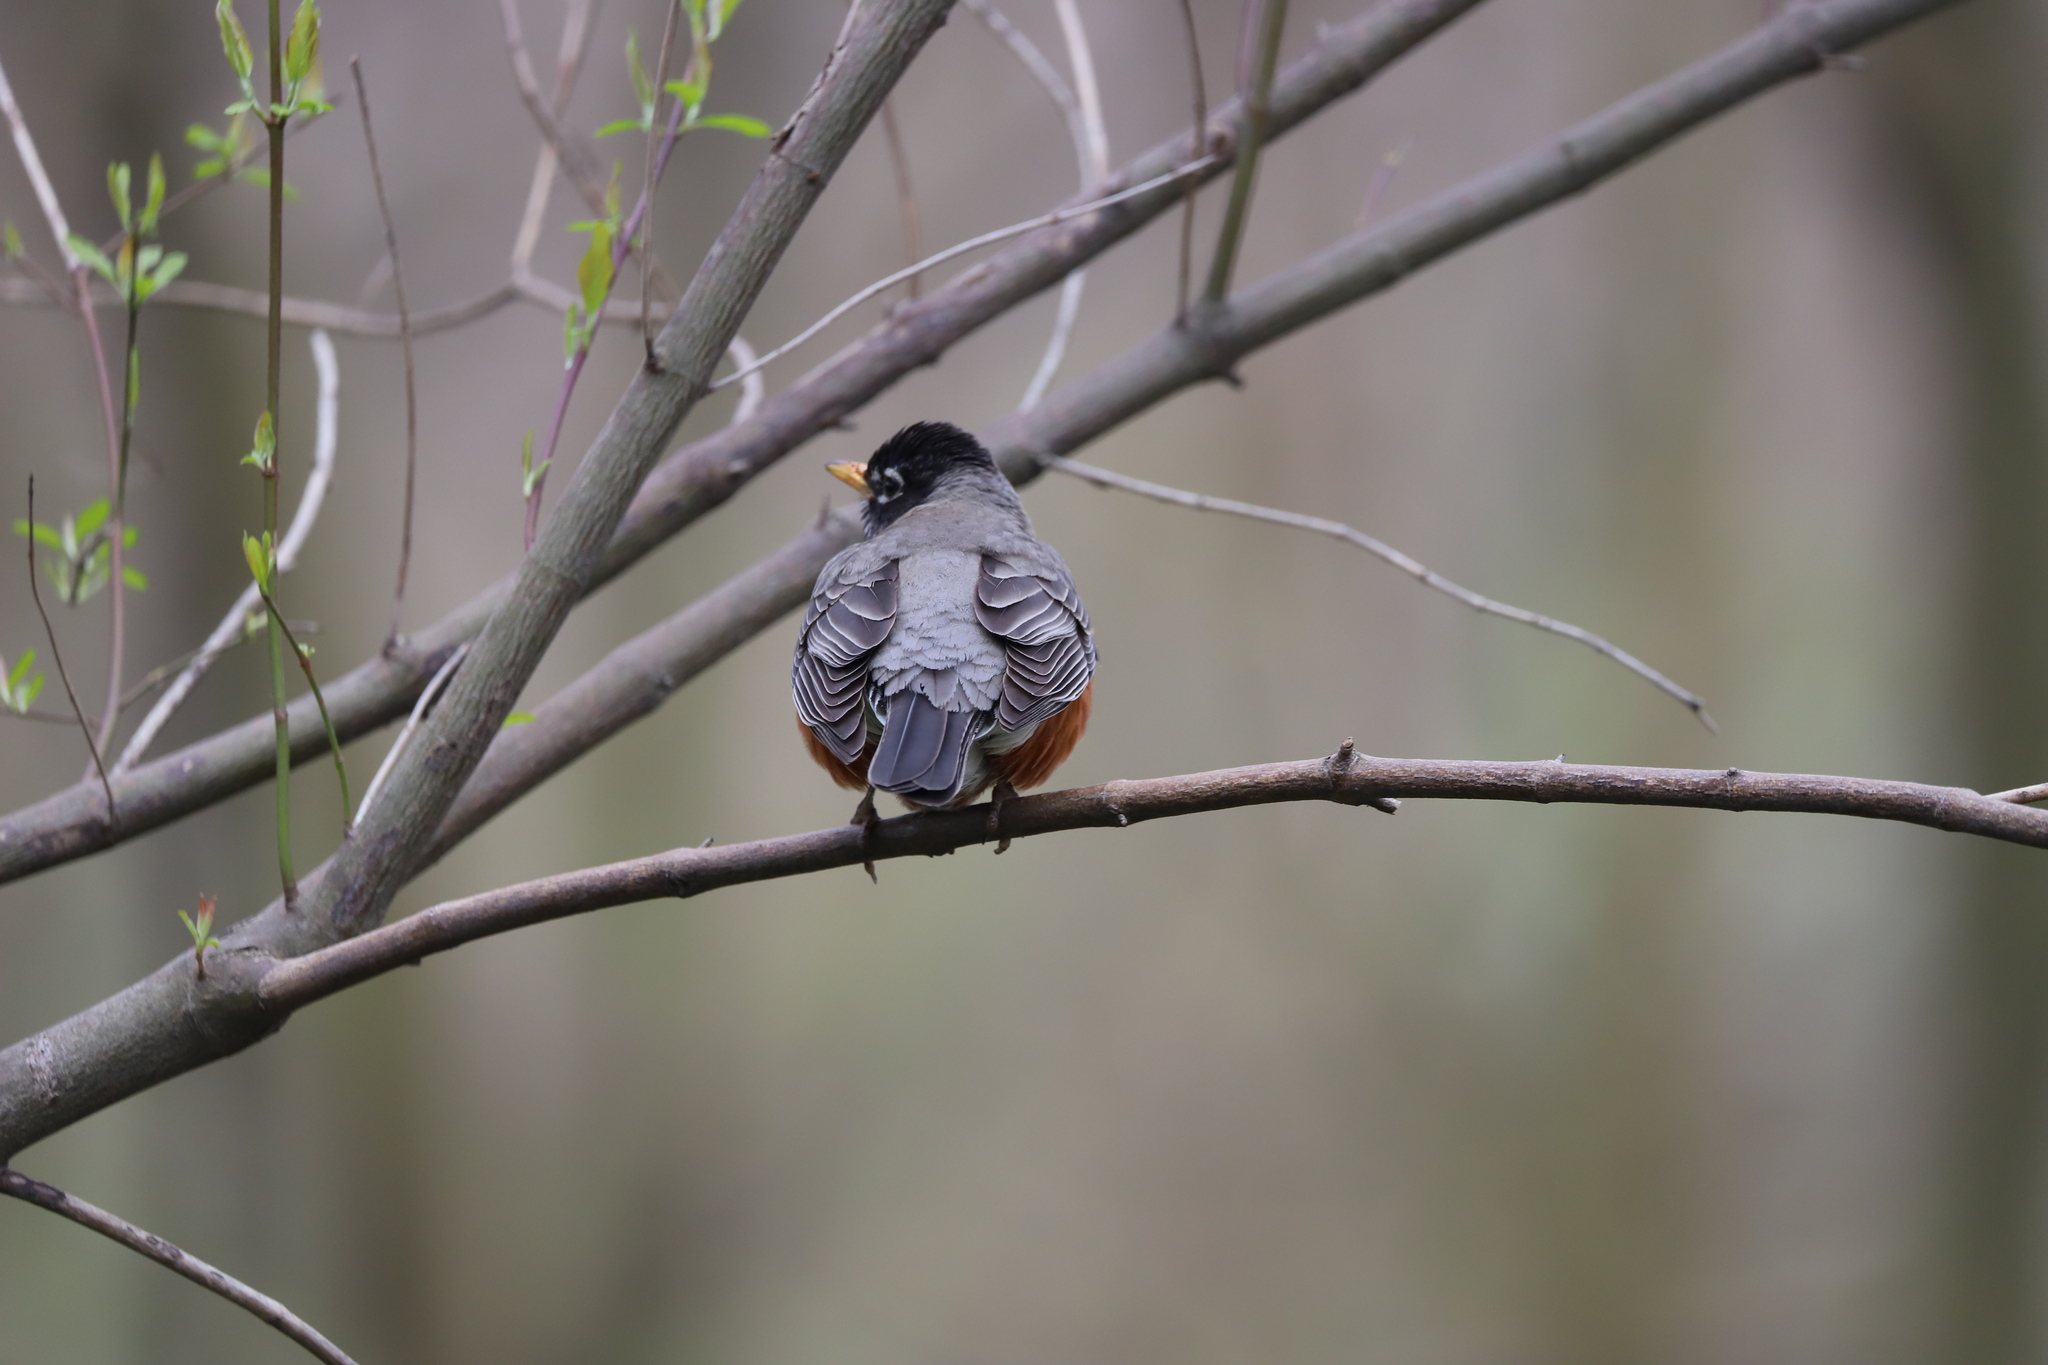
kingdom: Animalia
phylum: Chordata
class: Aves
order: Passeriformes
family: Turdidae
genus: Turdus
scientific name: Turdus migratorius
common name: American robin
